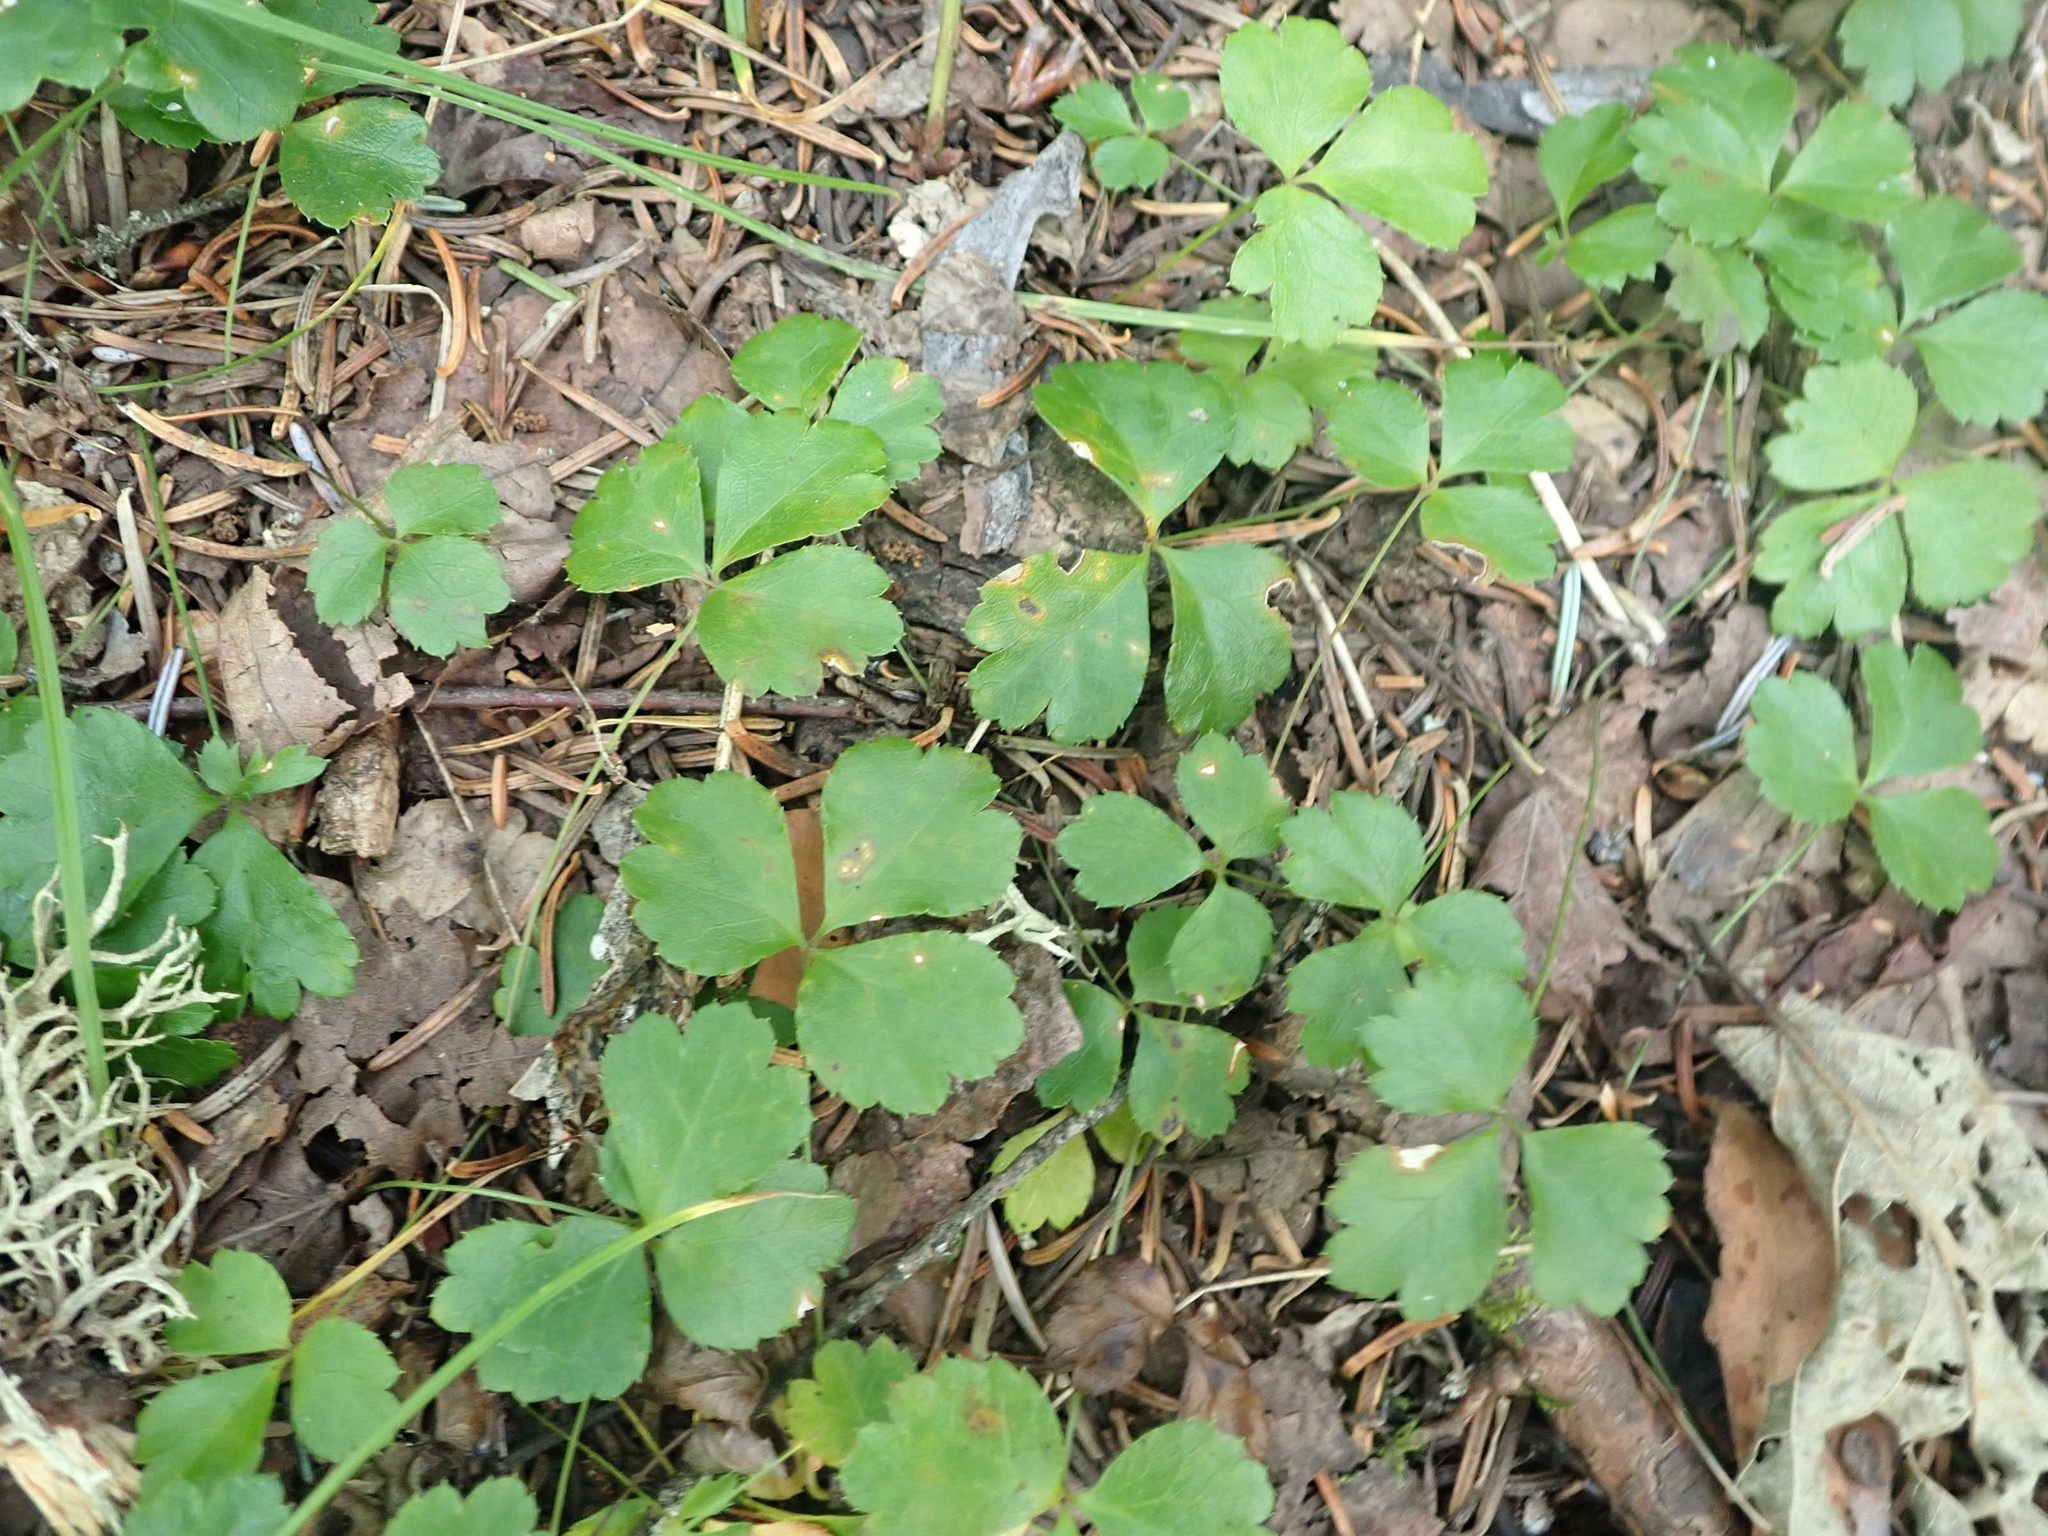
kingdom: Plantae
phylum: Tracheophyta
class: Magnoliopsida
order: Ranunculales
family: Ranunculaceae
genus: Coptis
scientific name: Coptis trifolia
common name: Canker-root
